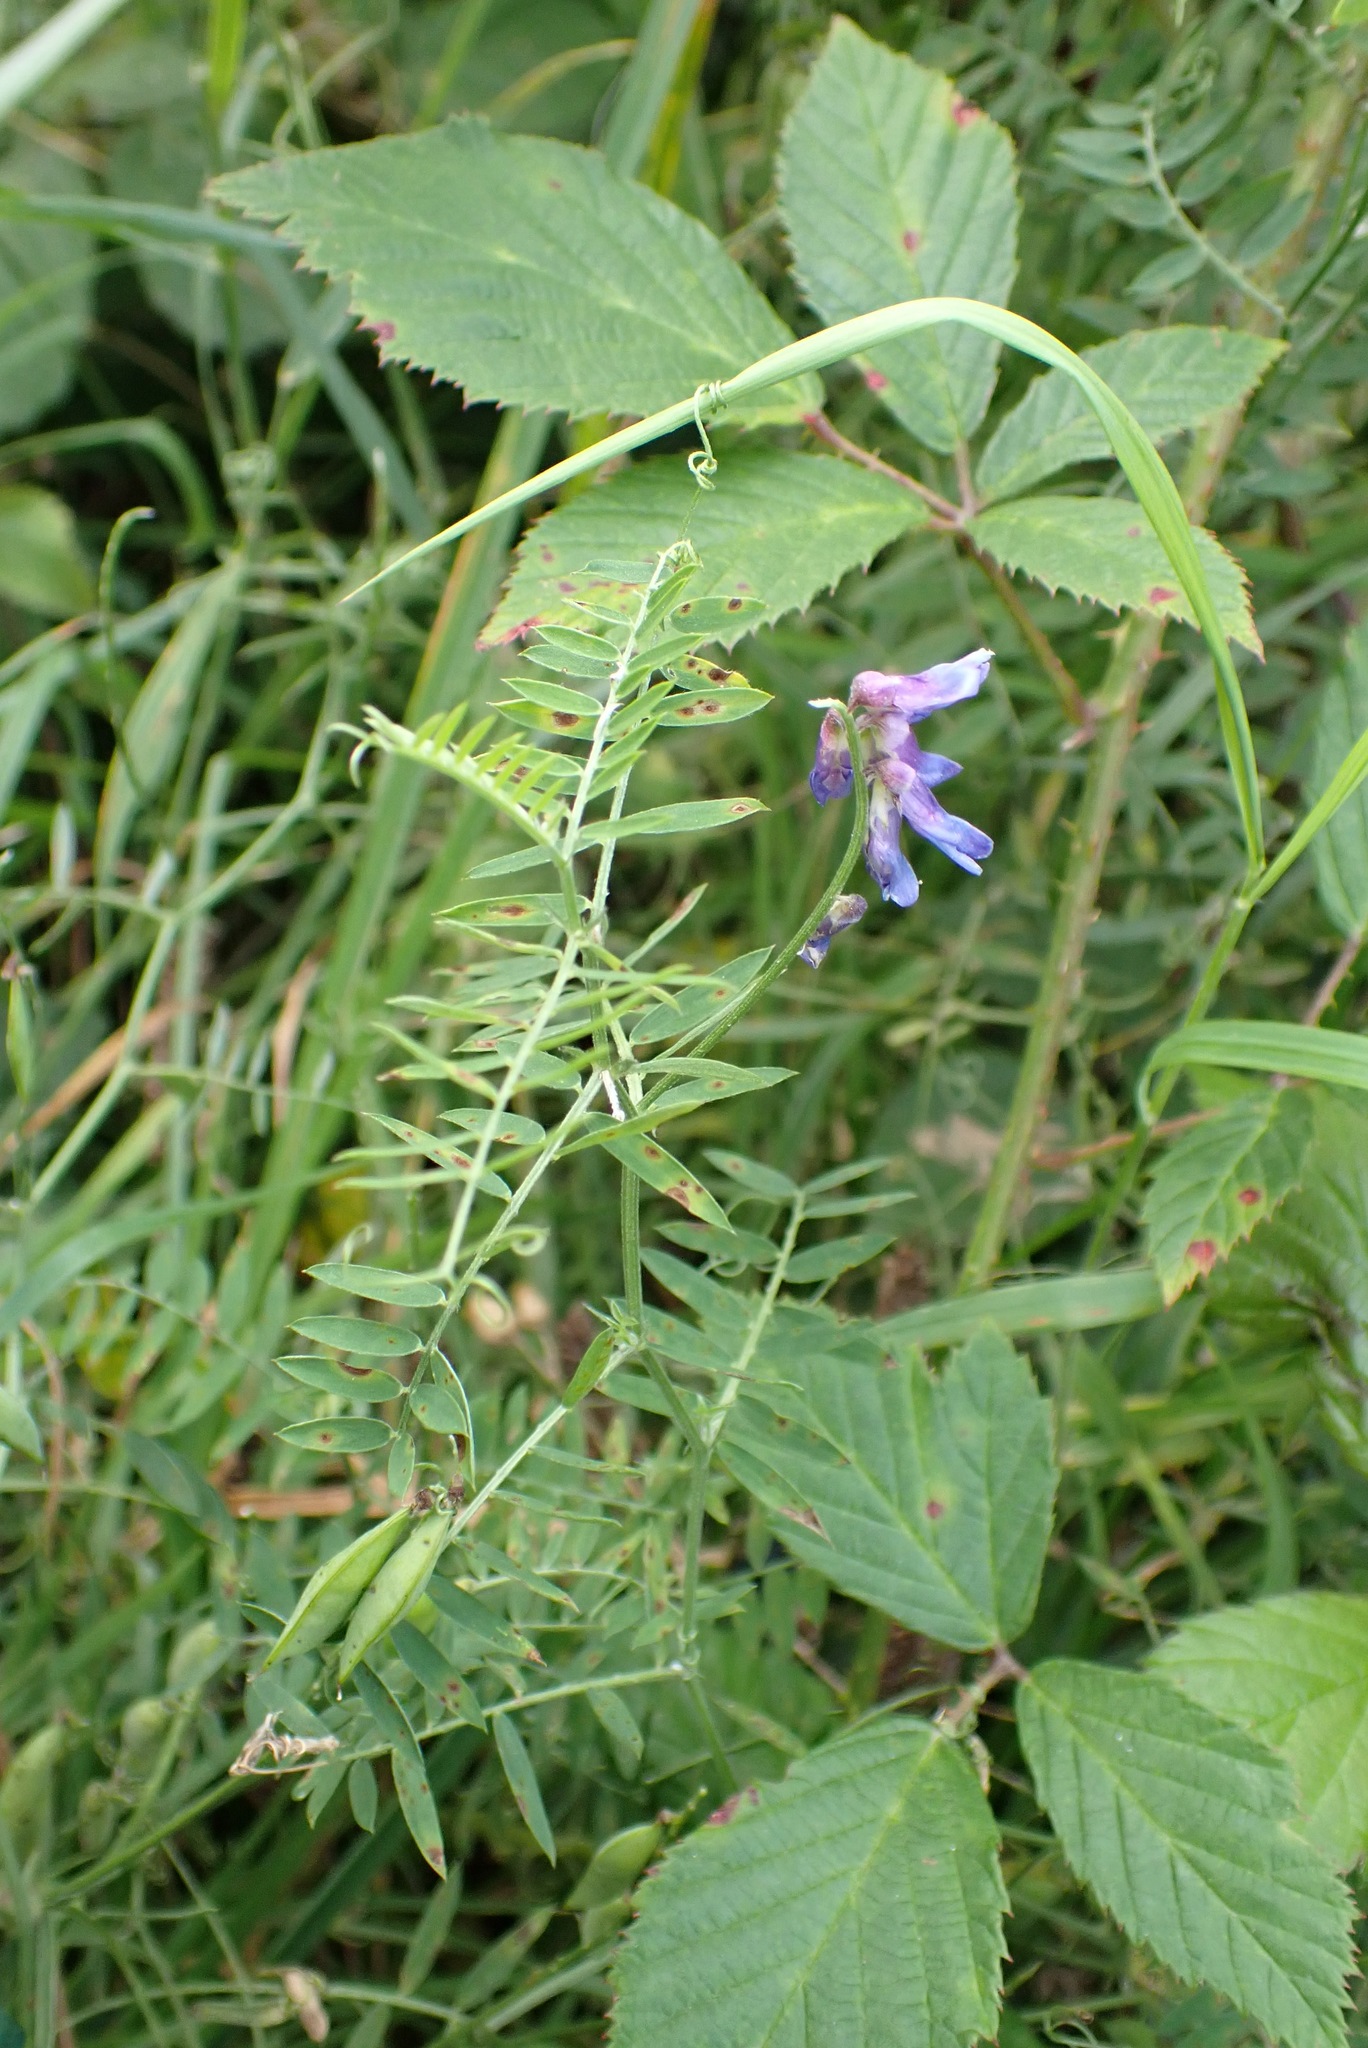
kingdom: Plantae
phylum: Tracheophyta
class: Magnoliopsida
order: Fabales
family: Fabaceae
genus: Vicia
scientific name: Vicia cracca
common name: Bird vetch
